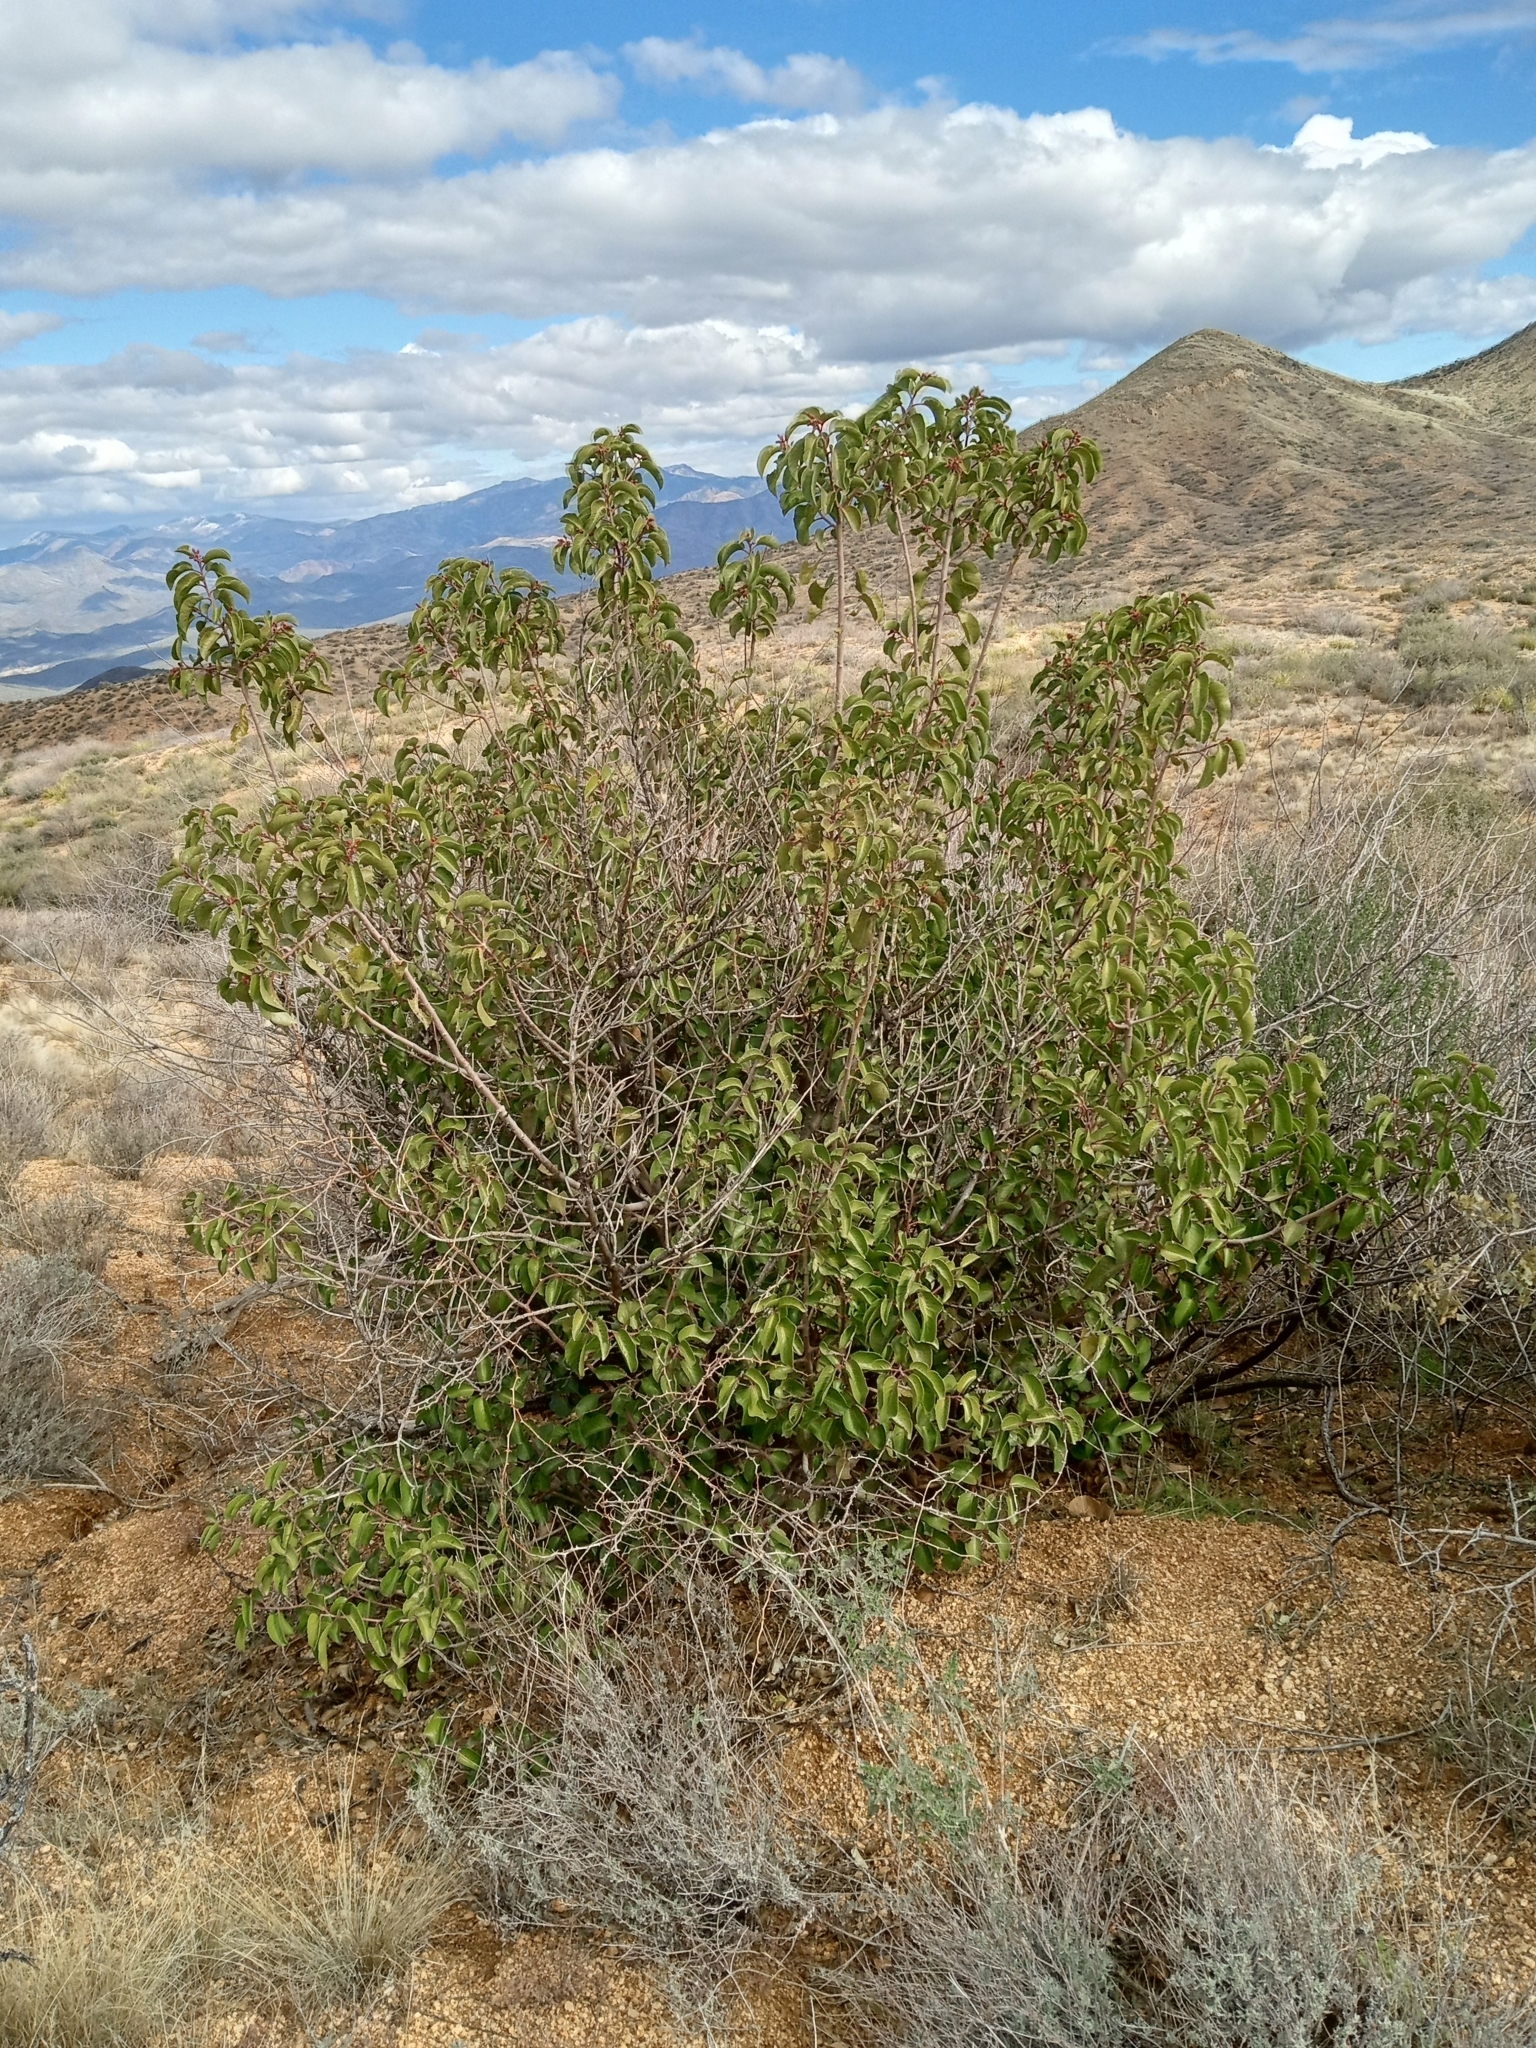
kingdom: Plantae
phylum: Tracheophyta
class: Magnoliopsida
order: Sapindales
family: Anacardiaceae
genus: Rhus
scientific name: Rhus ovata
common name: Sugar sumac
